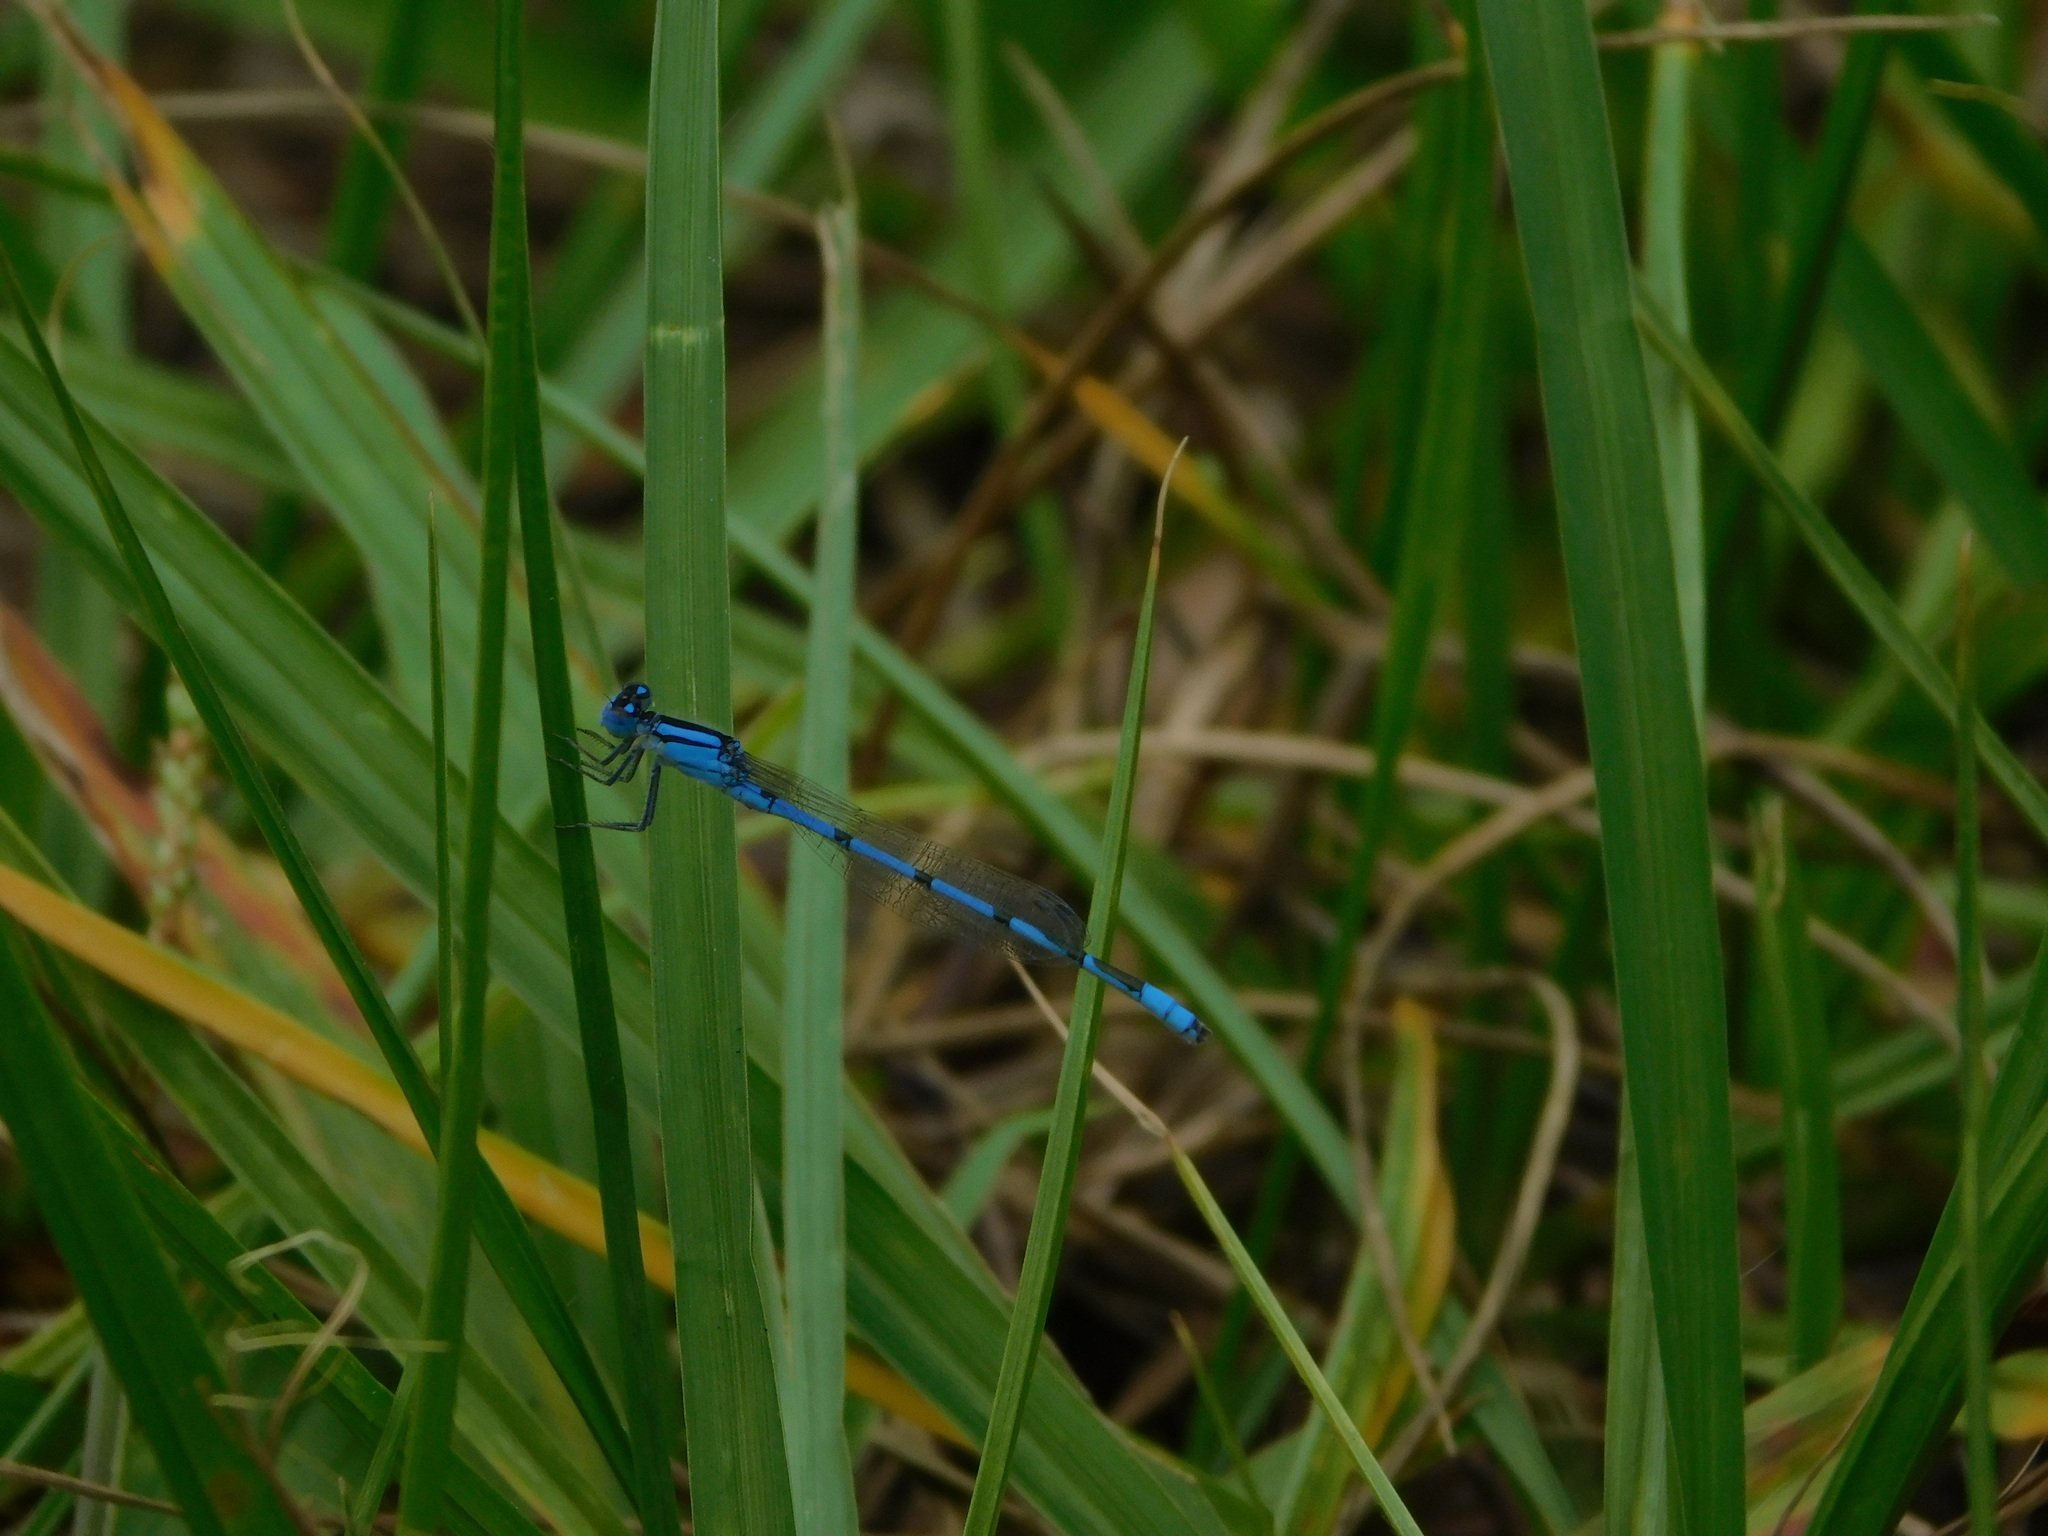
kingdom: Animalia
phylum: Arthropoda
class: Insecta
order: Odonata
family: Coenagrionidae
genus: Enallagma
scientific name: Enallagma civile
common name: Damselfly
